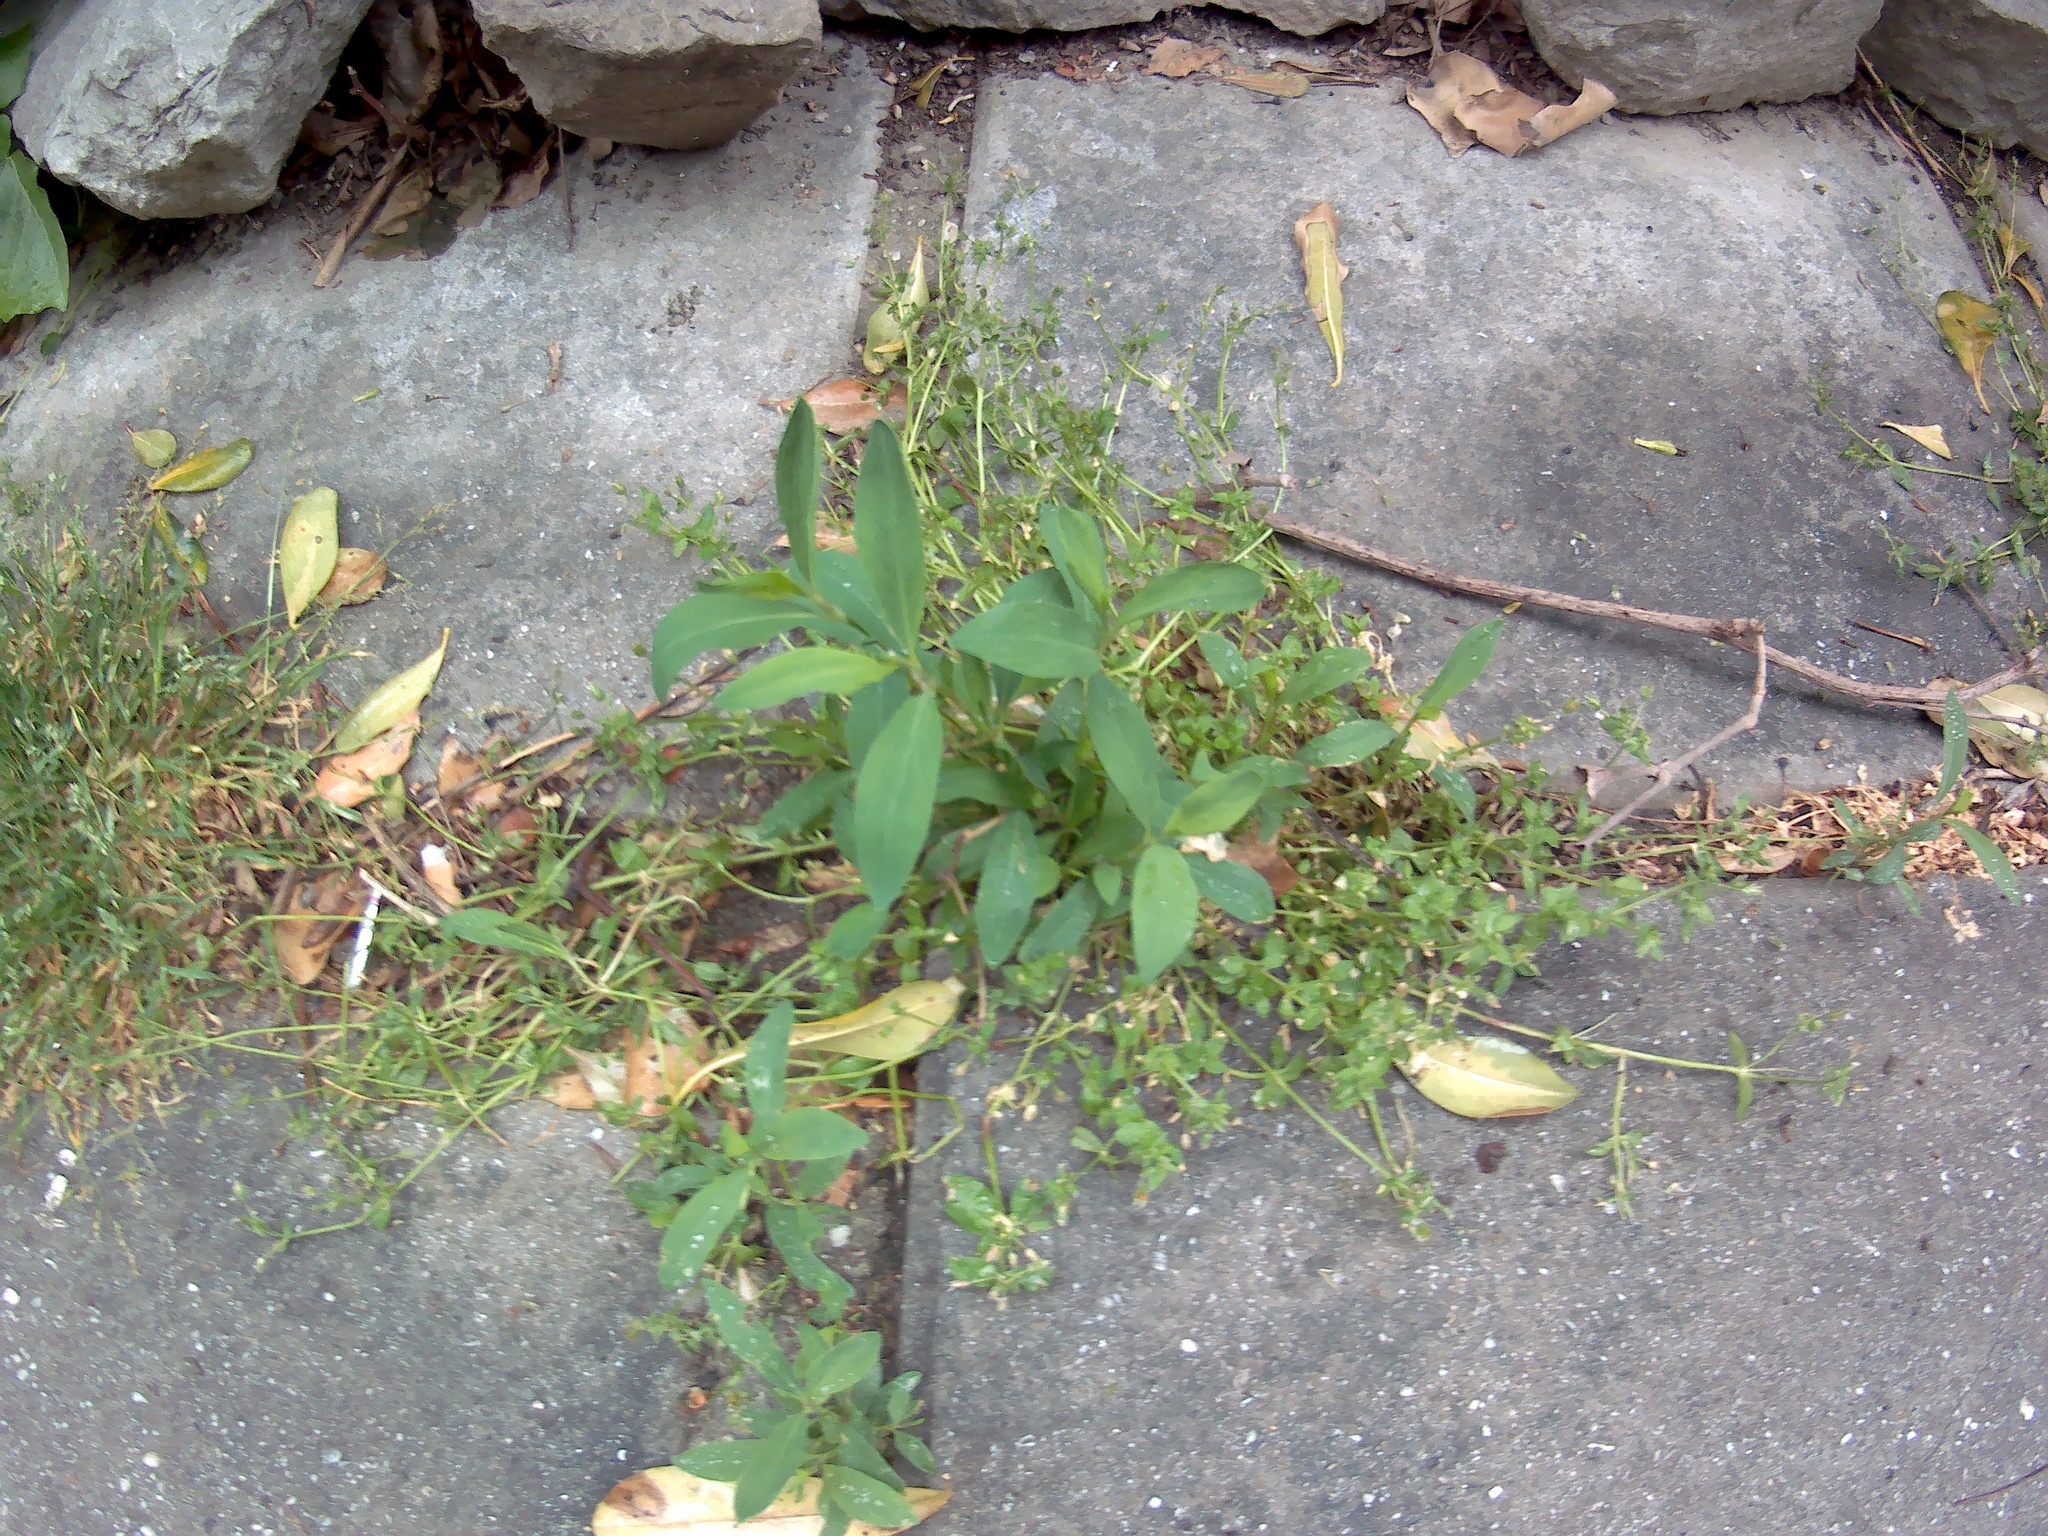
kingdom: Plantae
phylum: Tracheophyta
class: Magnoliopsida
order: Caryophyllales
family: Polygonaceae
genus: Polygonum
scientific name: Polygonum aviculare
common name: Prostrate knotweed
